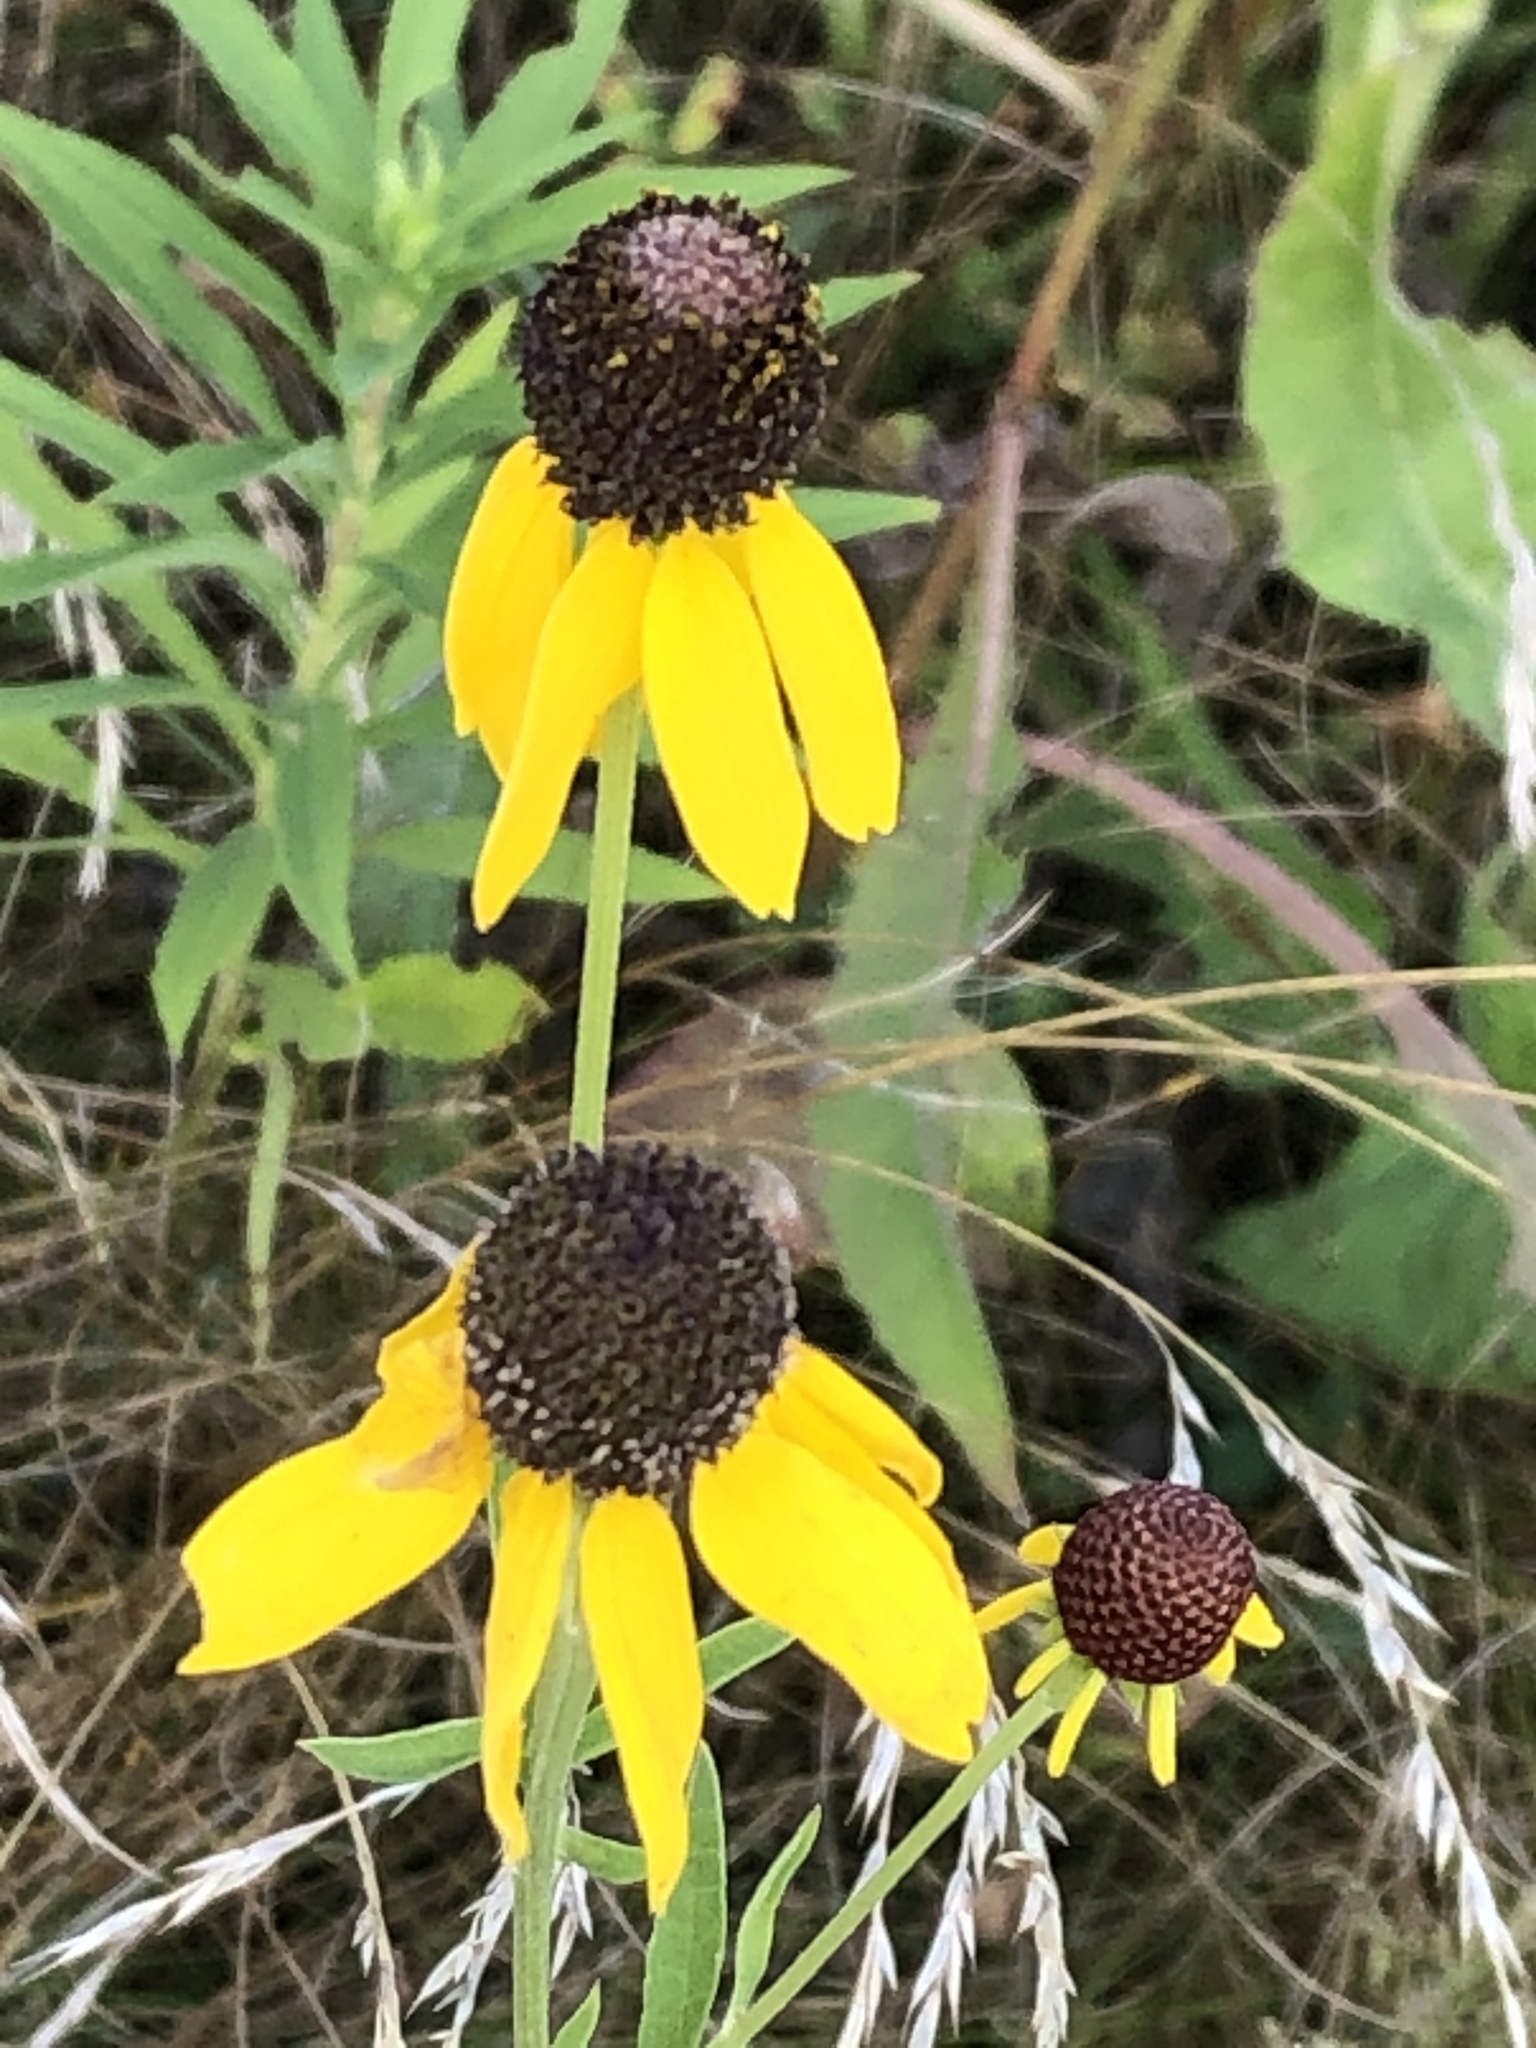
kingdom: Plantae
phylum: Tracheophyta
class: Magnoliopsida
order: Asterales
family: Asteraceae
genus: Ratibida
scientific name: Ratibida pinnata
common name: Drooping prairie-coneflower
